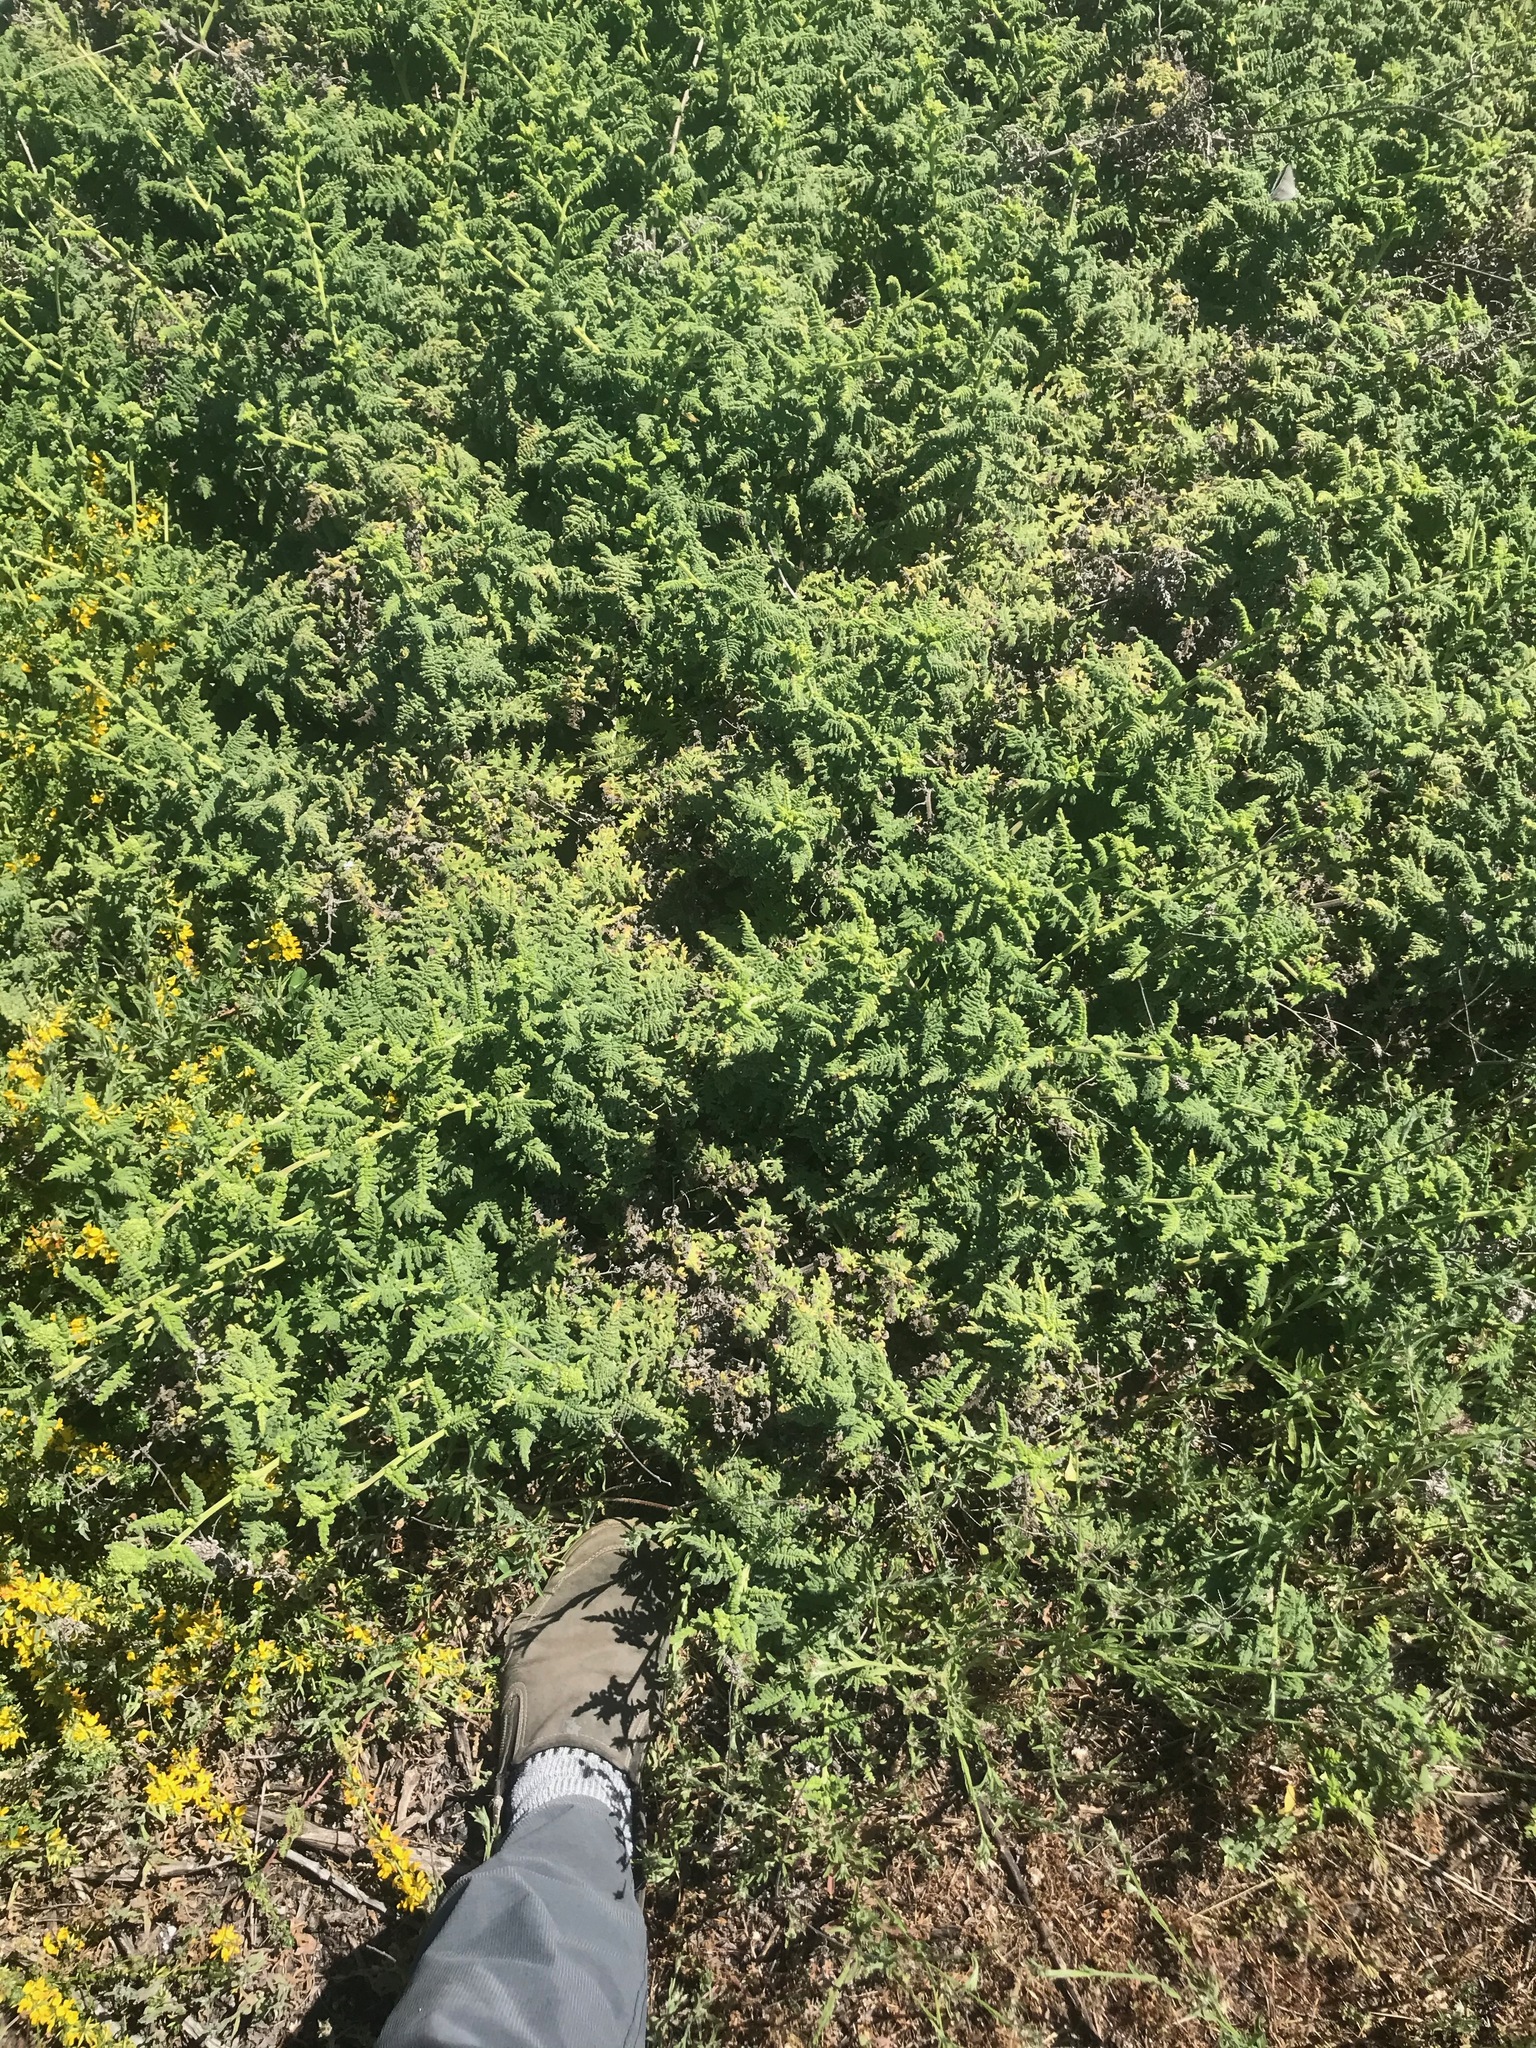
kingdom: Plantae
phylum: Tracheophyta
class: Magnoliopsida
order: Boraginales
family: Hydrophyllaceae
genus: Phacelia
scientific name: Phacelia ramosissima
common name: Branching phacelia
